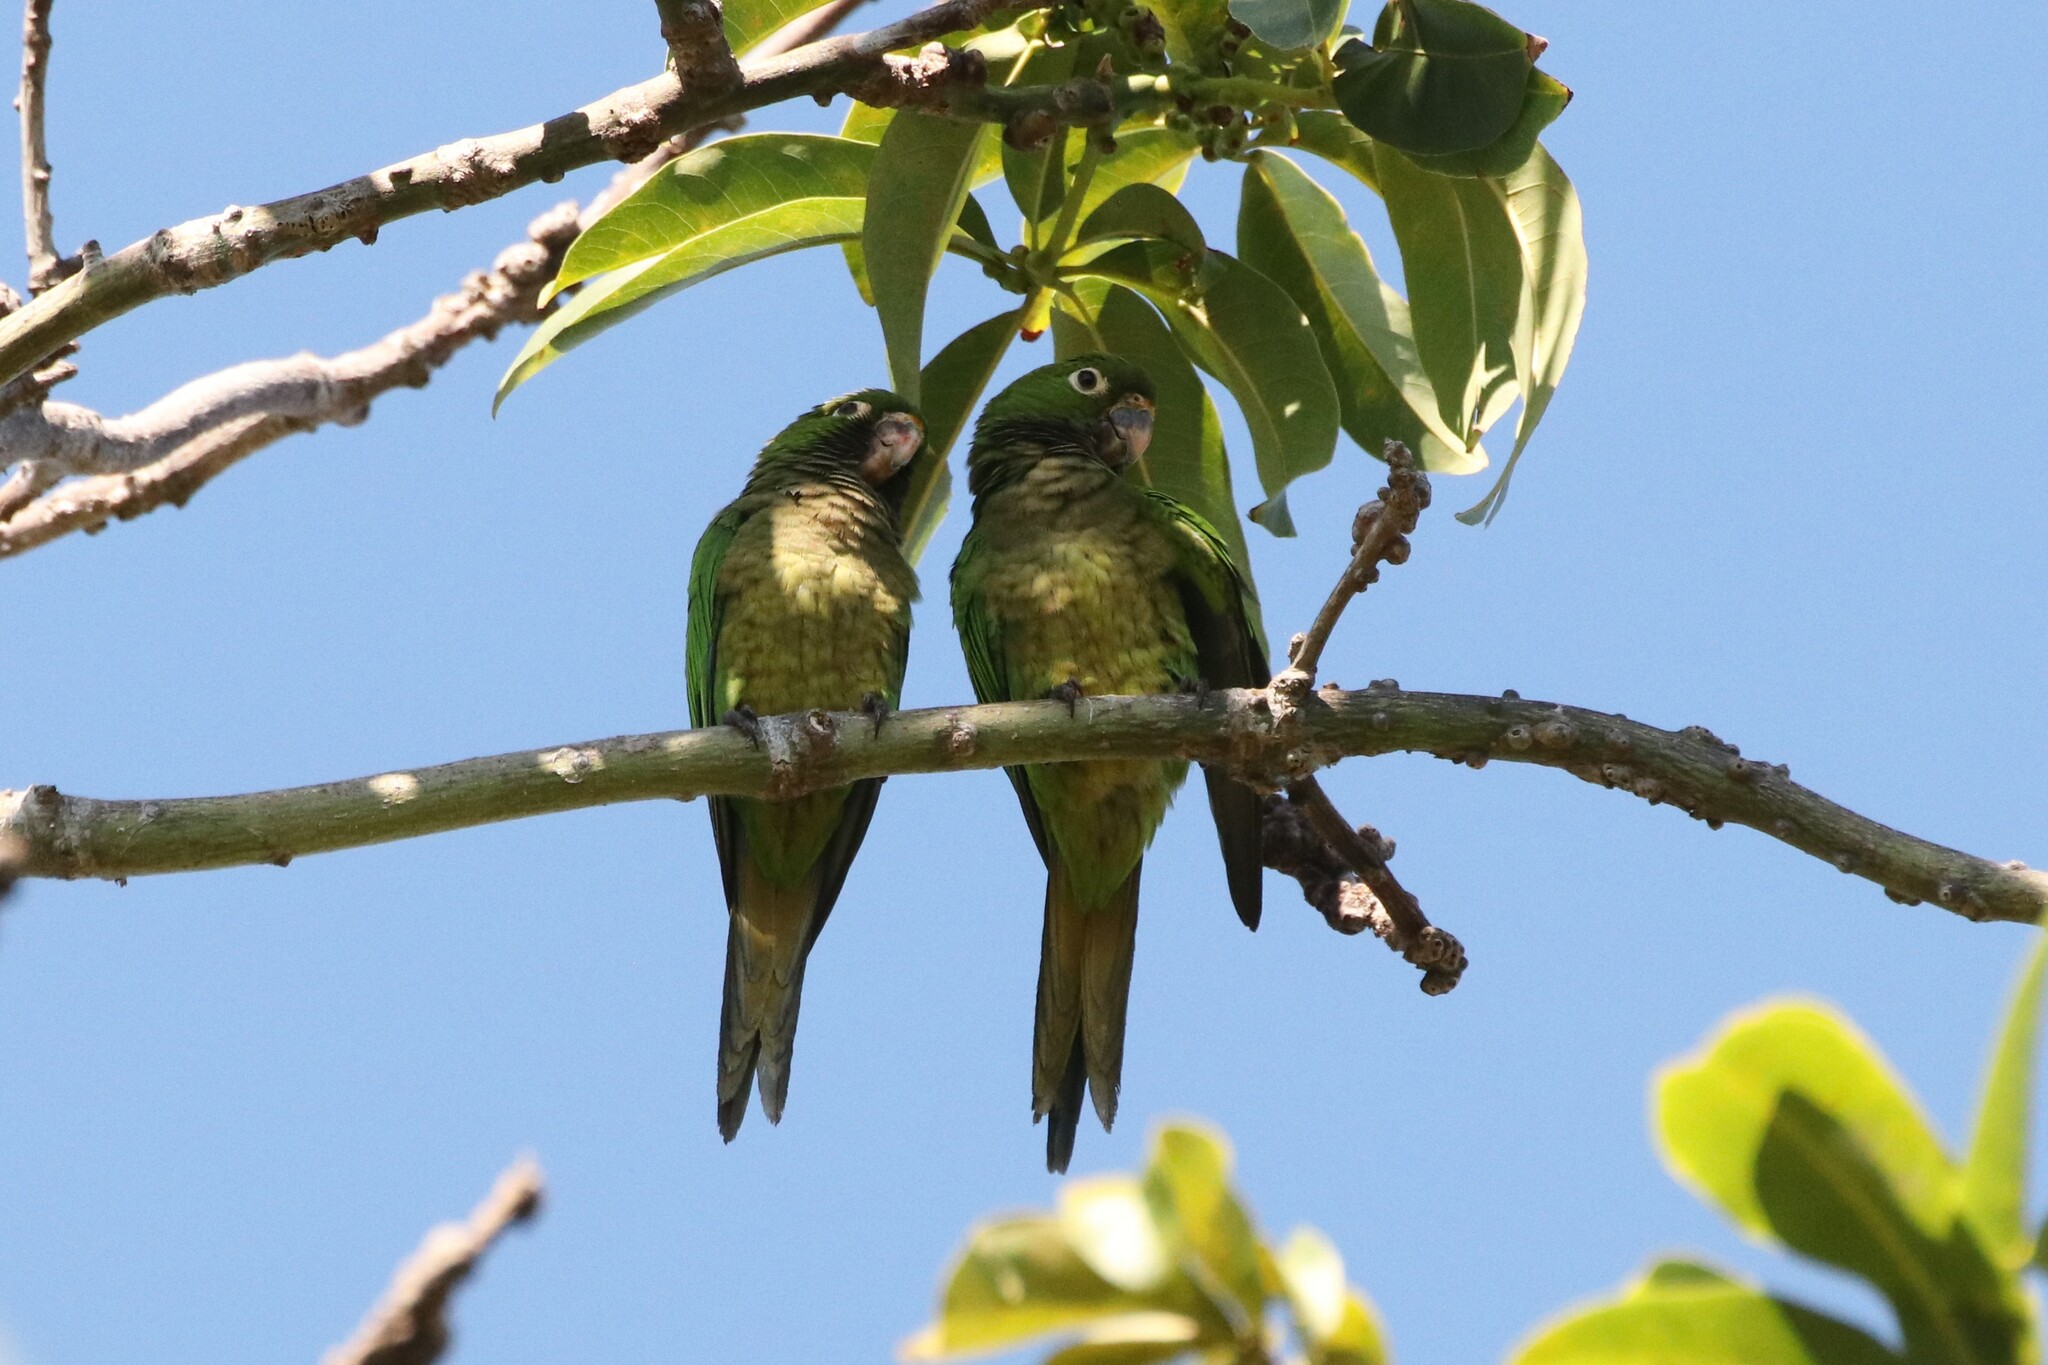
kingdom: Animalia
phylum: Chordata
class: Aves
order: Psittaciformes
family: Psittacidae
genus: Aratinga
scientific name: Aratinga nana
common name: Olive-throated parakeet
